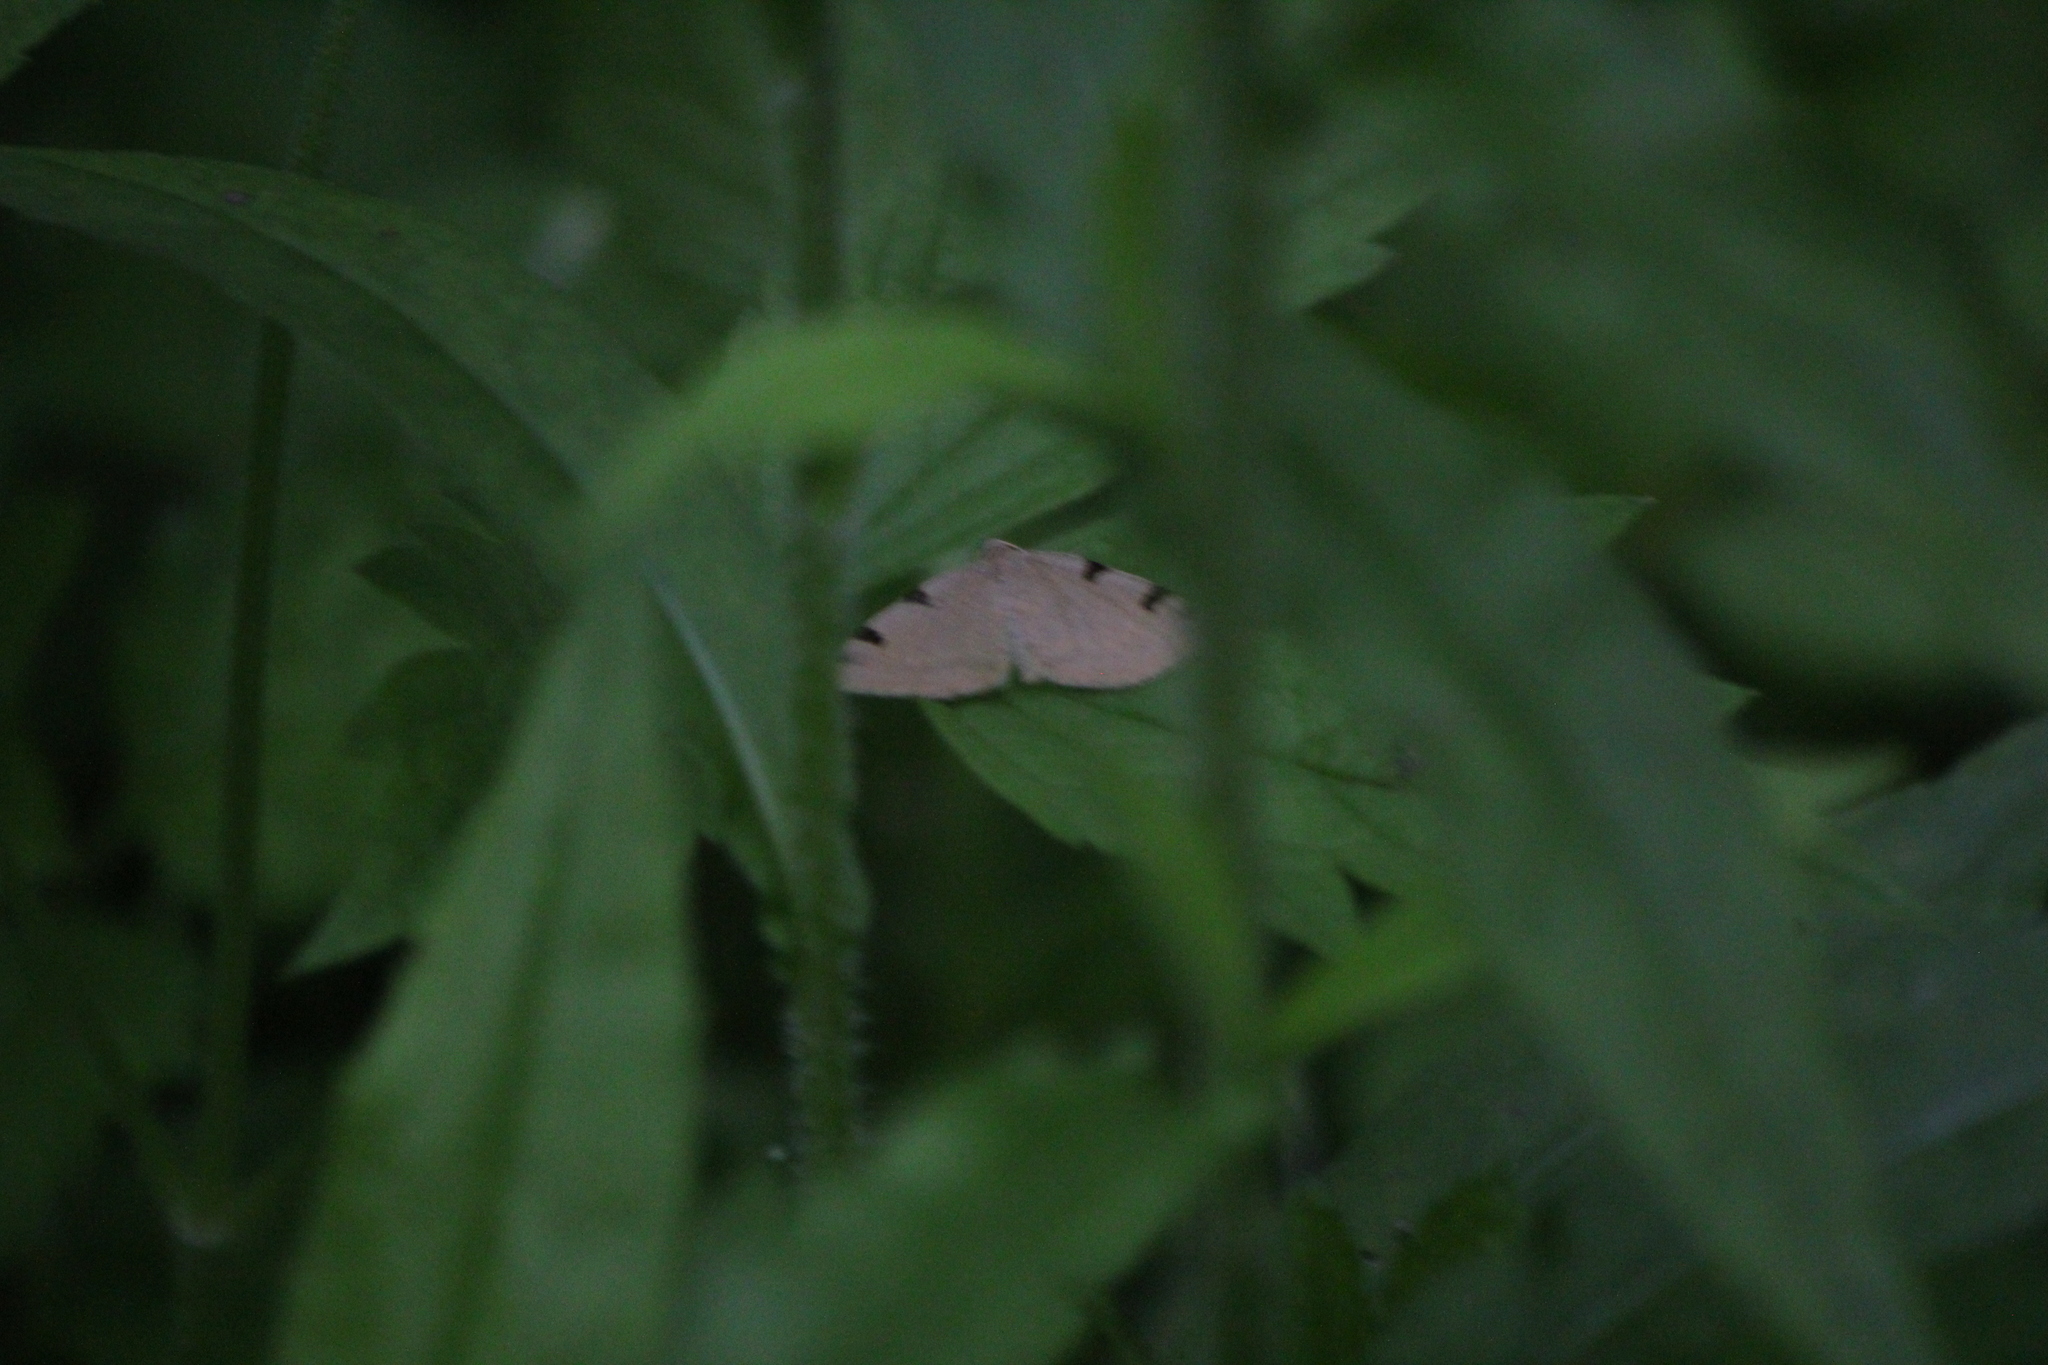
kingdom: Animalia
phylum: Arthropoda
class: Insecta
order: Lepidoptera
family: Geometridae
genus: Heterophleps
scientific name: Heterophleps triguttaria
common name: Three-spotted fillip
